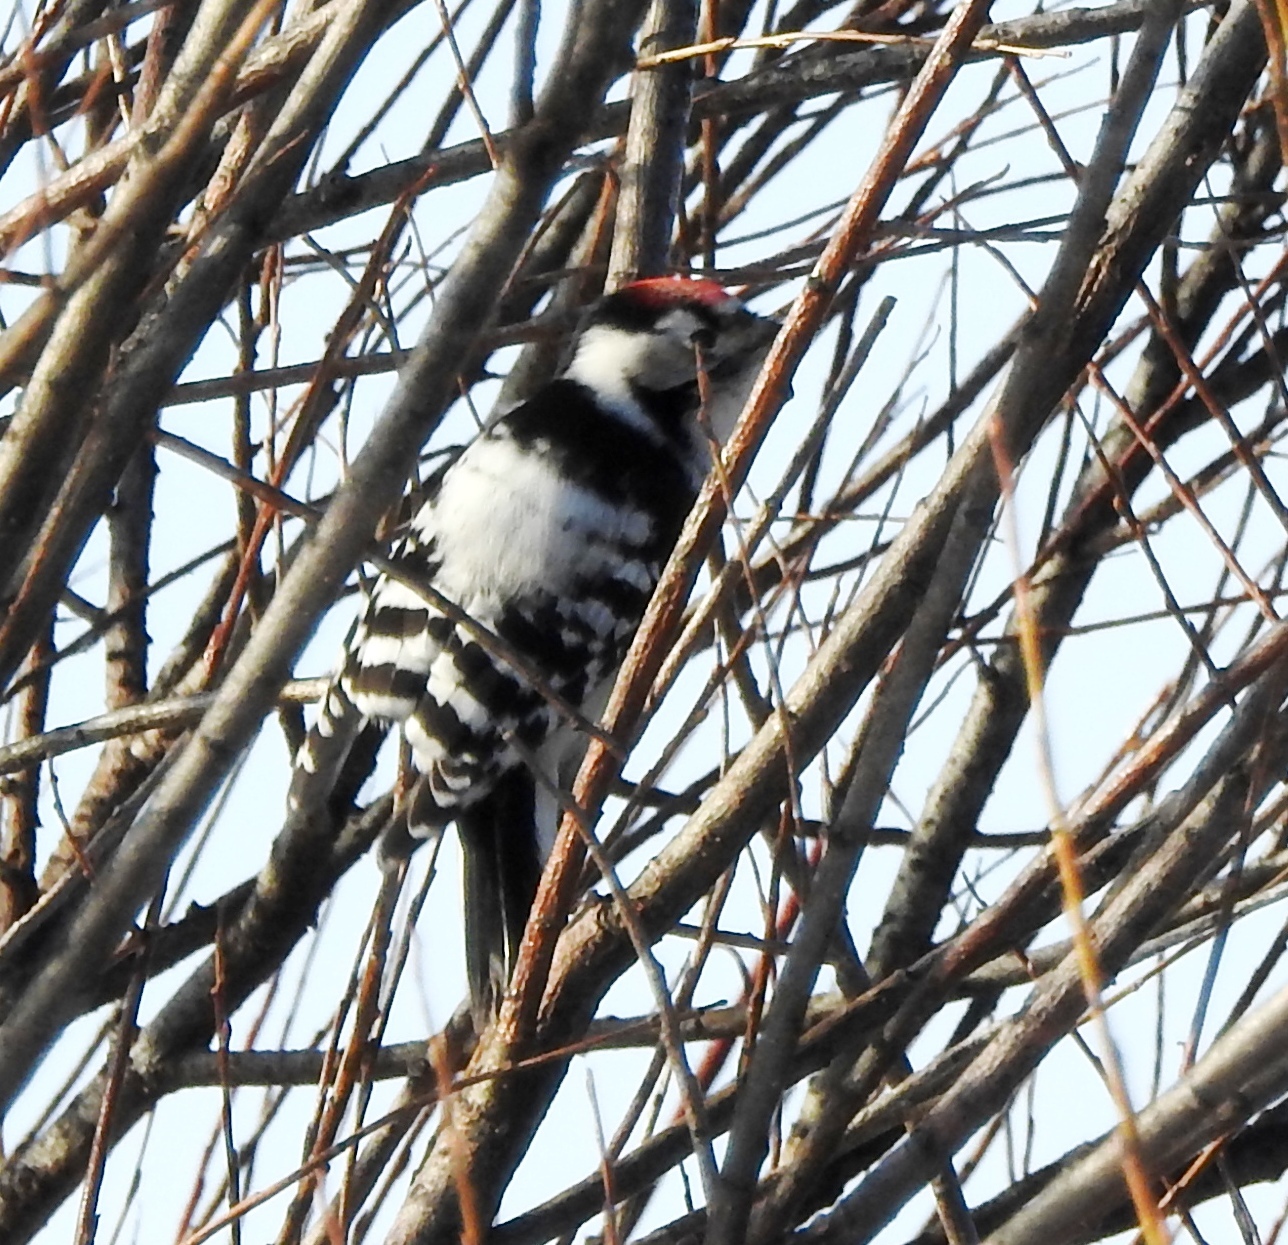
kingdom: Animalia
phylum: Chordata
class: Aves
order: Piciformes
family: Picidae
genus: Dryobates
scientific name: Dryobates minor
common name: Lesser spotted woodpecker
